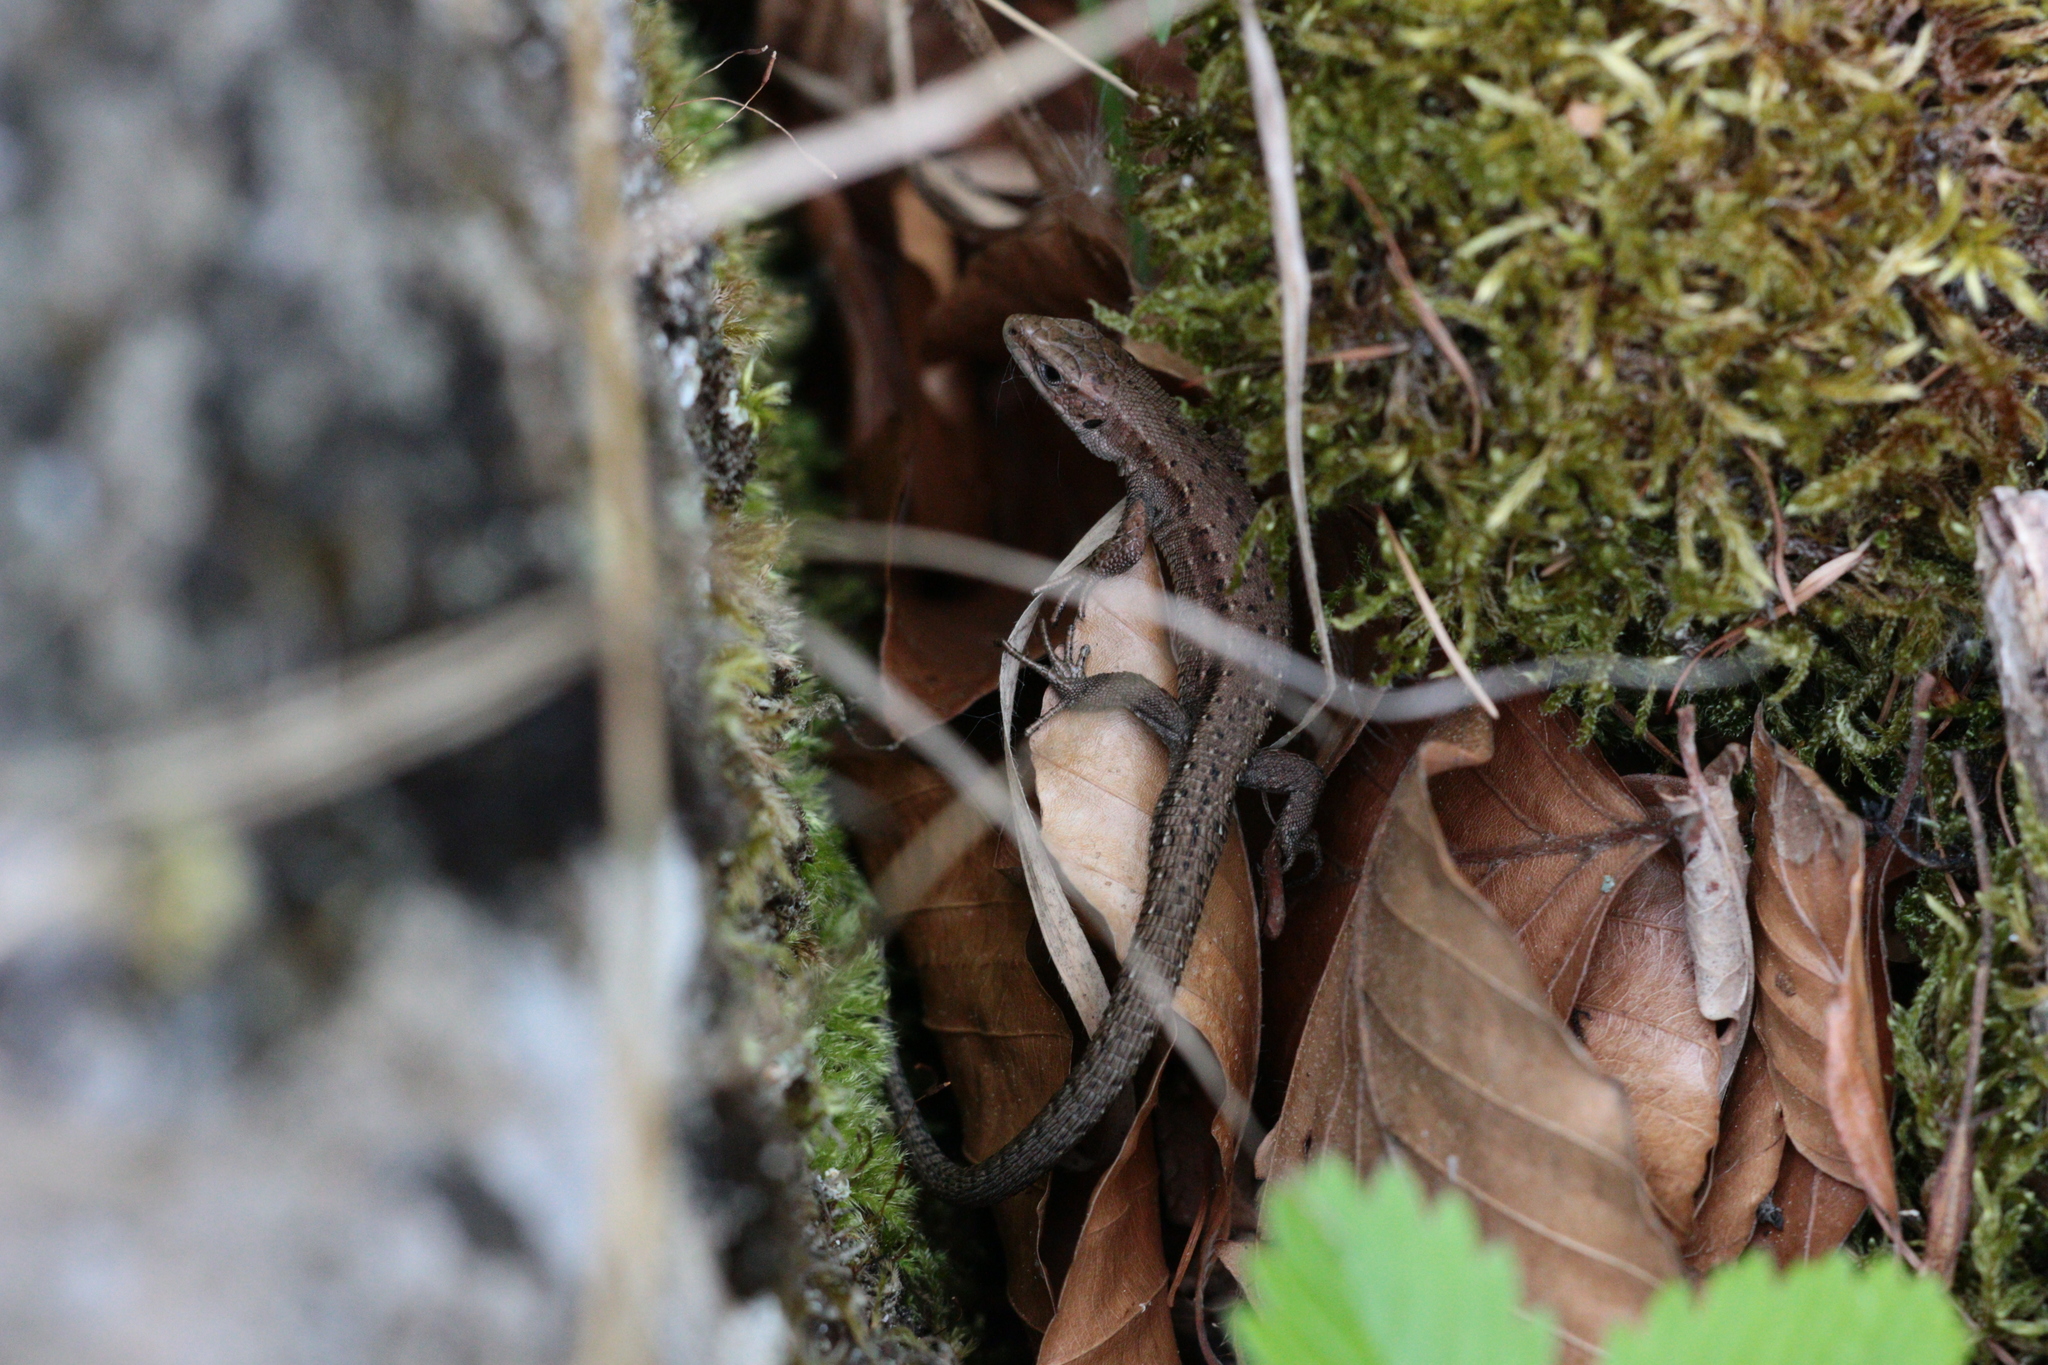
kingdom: Animalia
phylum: Chordata
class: Squamata
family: Lacertidae
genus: Zootoca
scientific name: Zootoca vivipara
